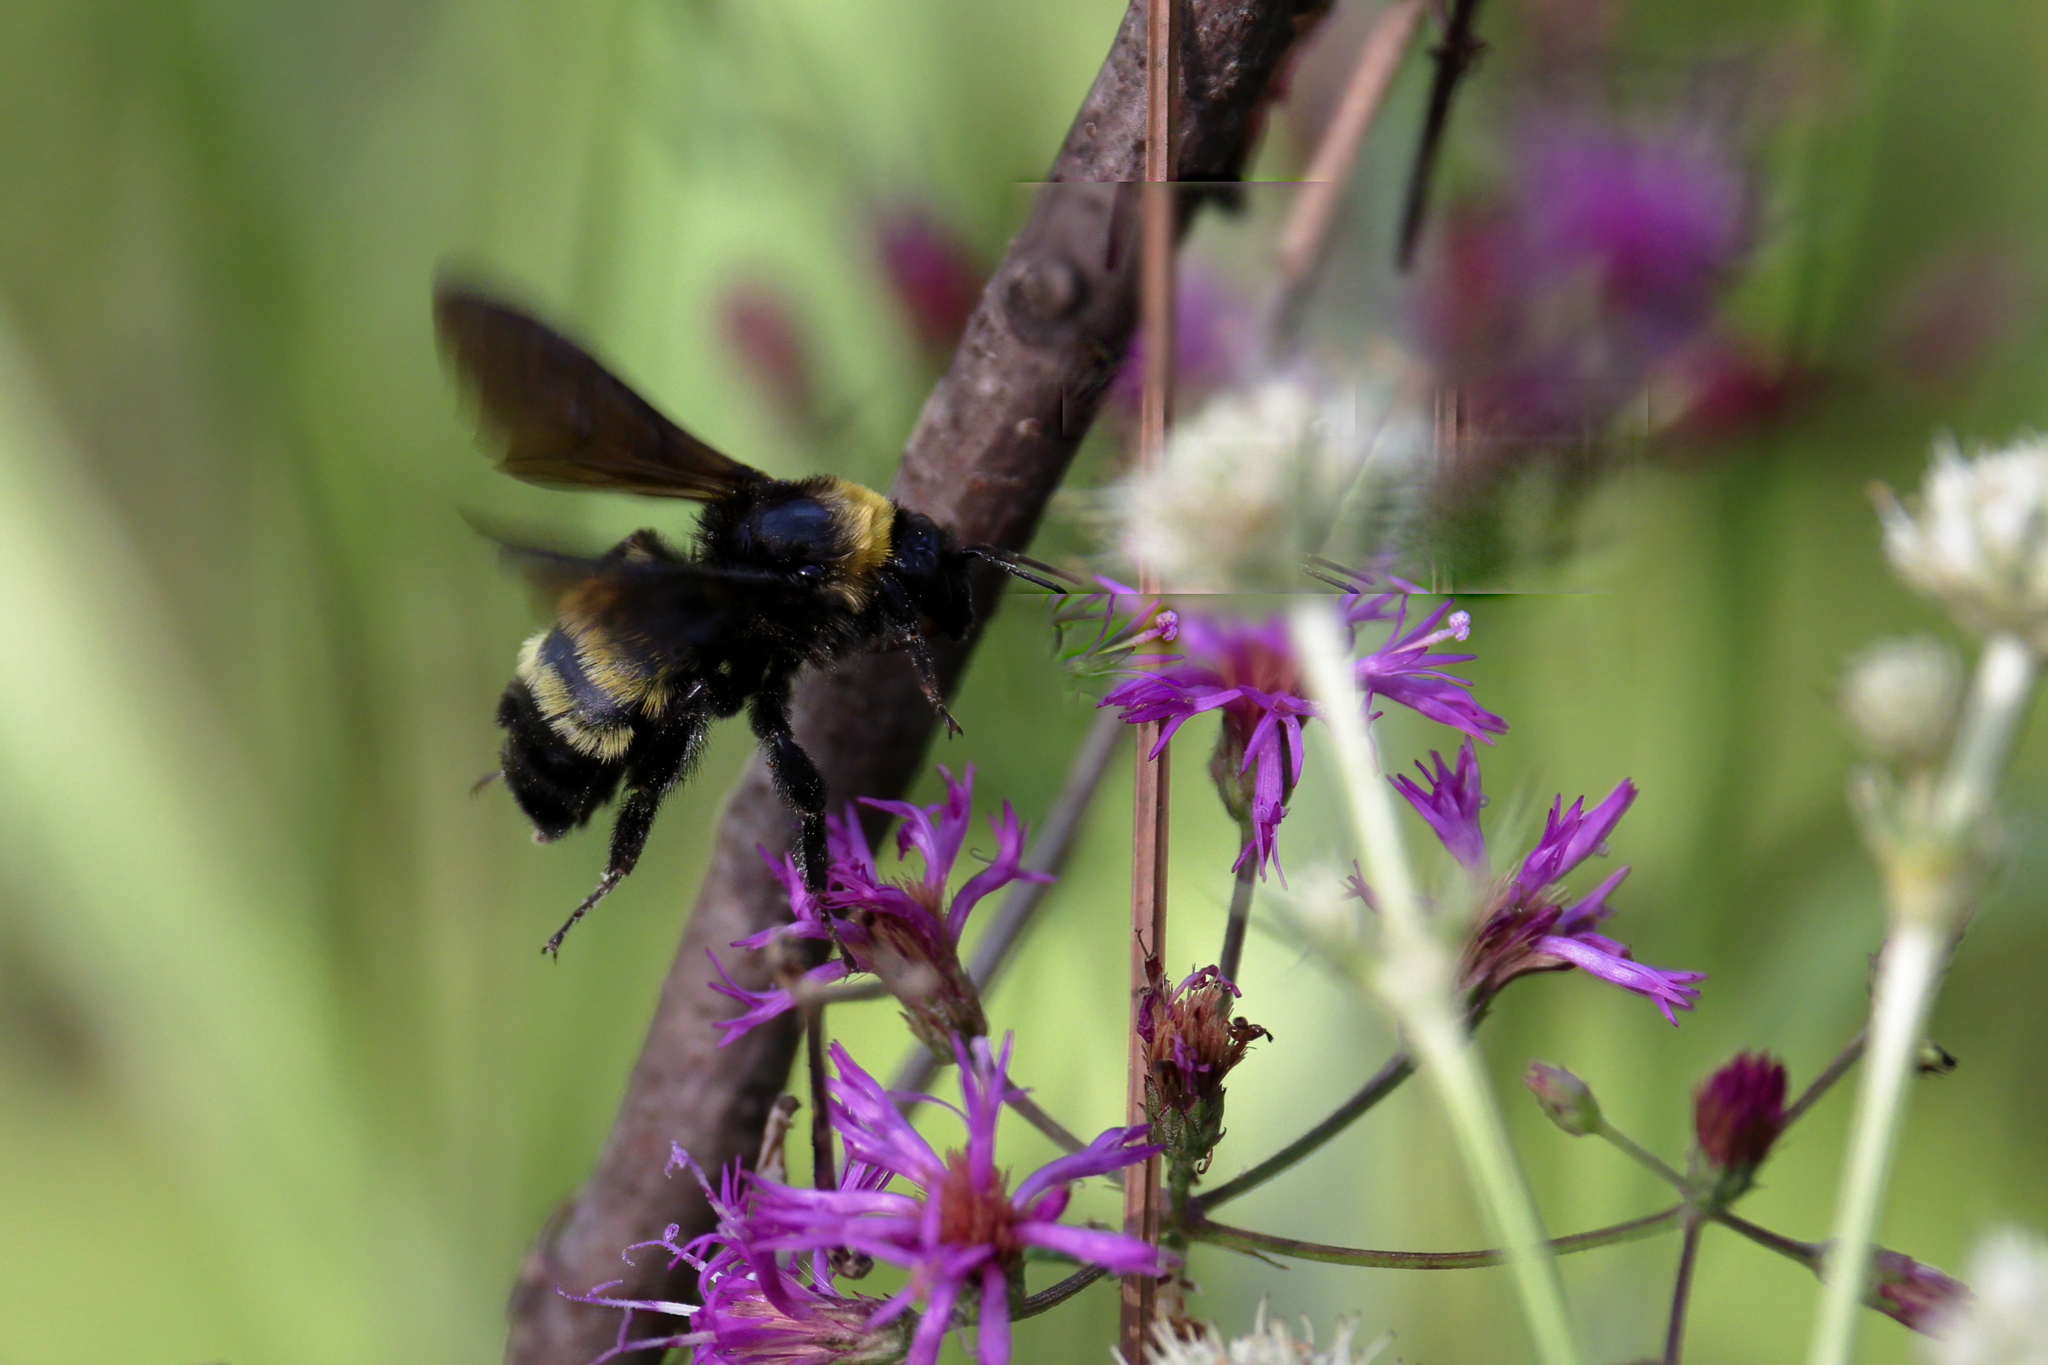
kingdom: Animalia
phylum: Arthropoda
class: Insecta
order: Hymenoptera
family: Apidae
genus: Bombus
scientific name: Bombus pensylvanicus
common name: Bumble bee
